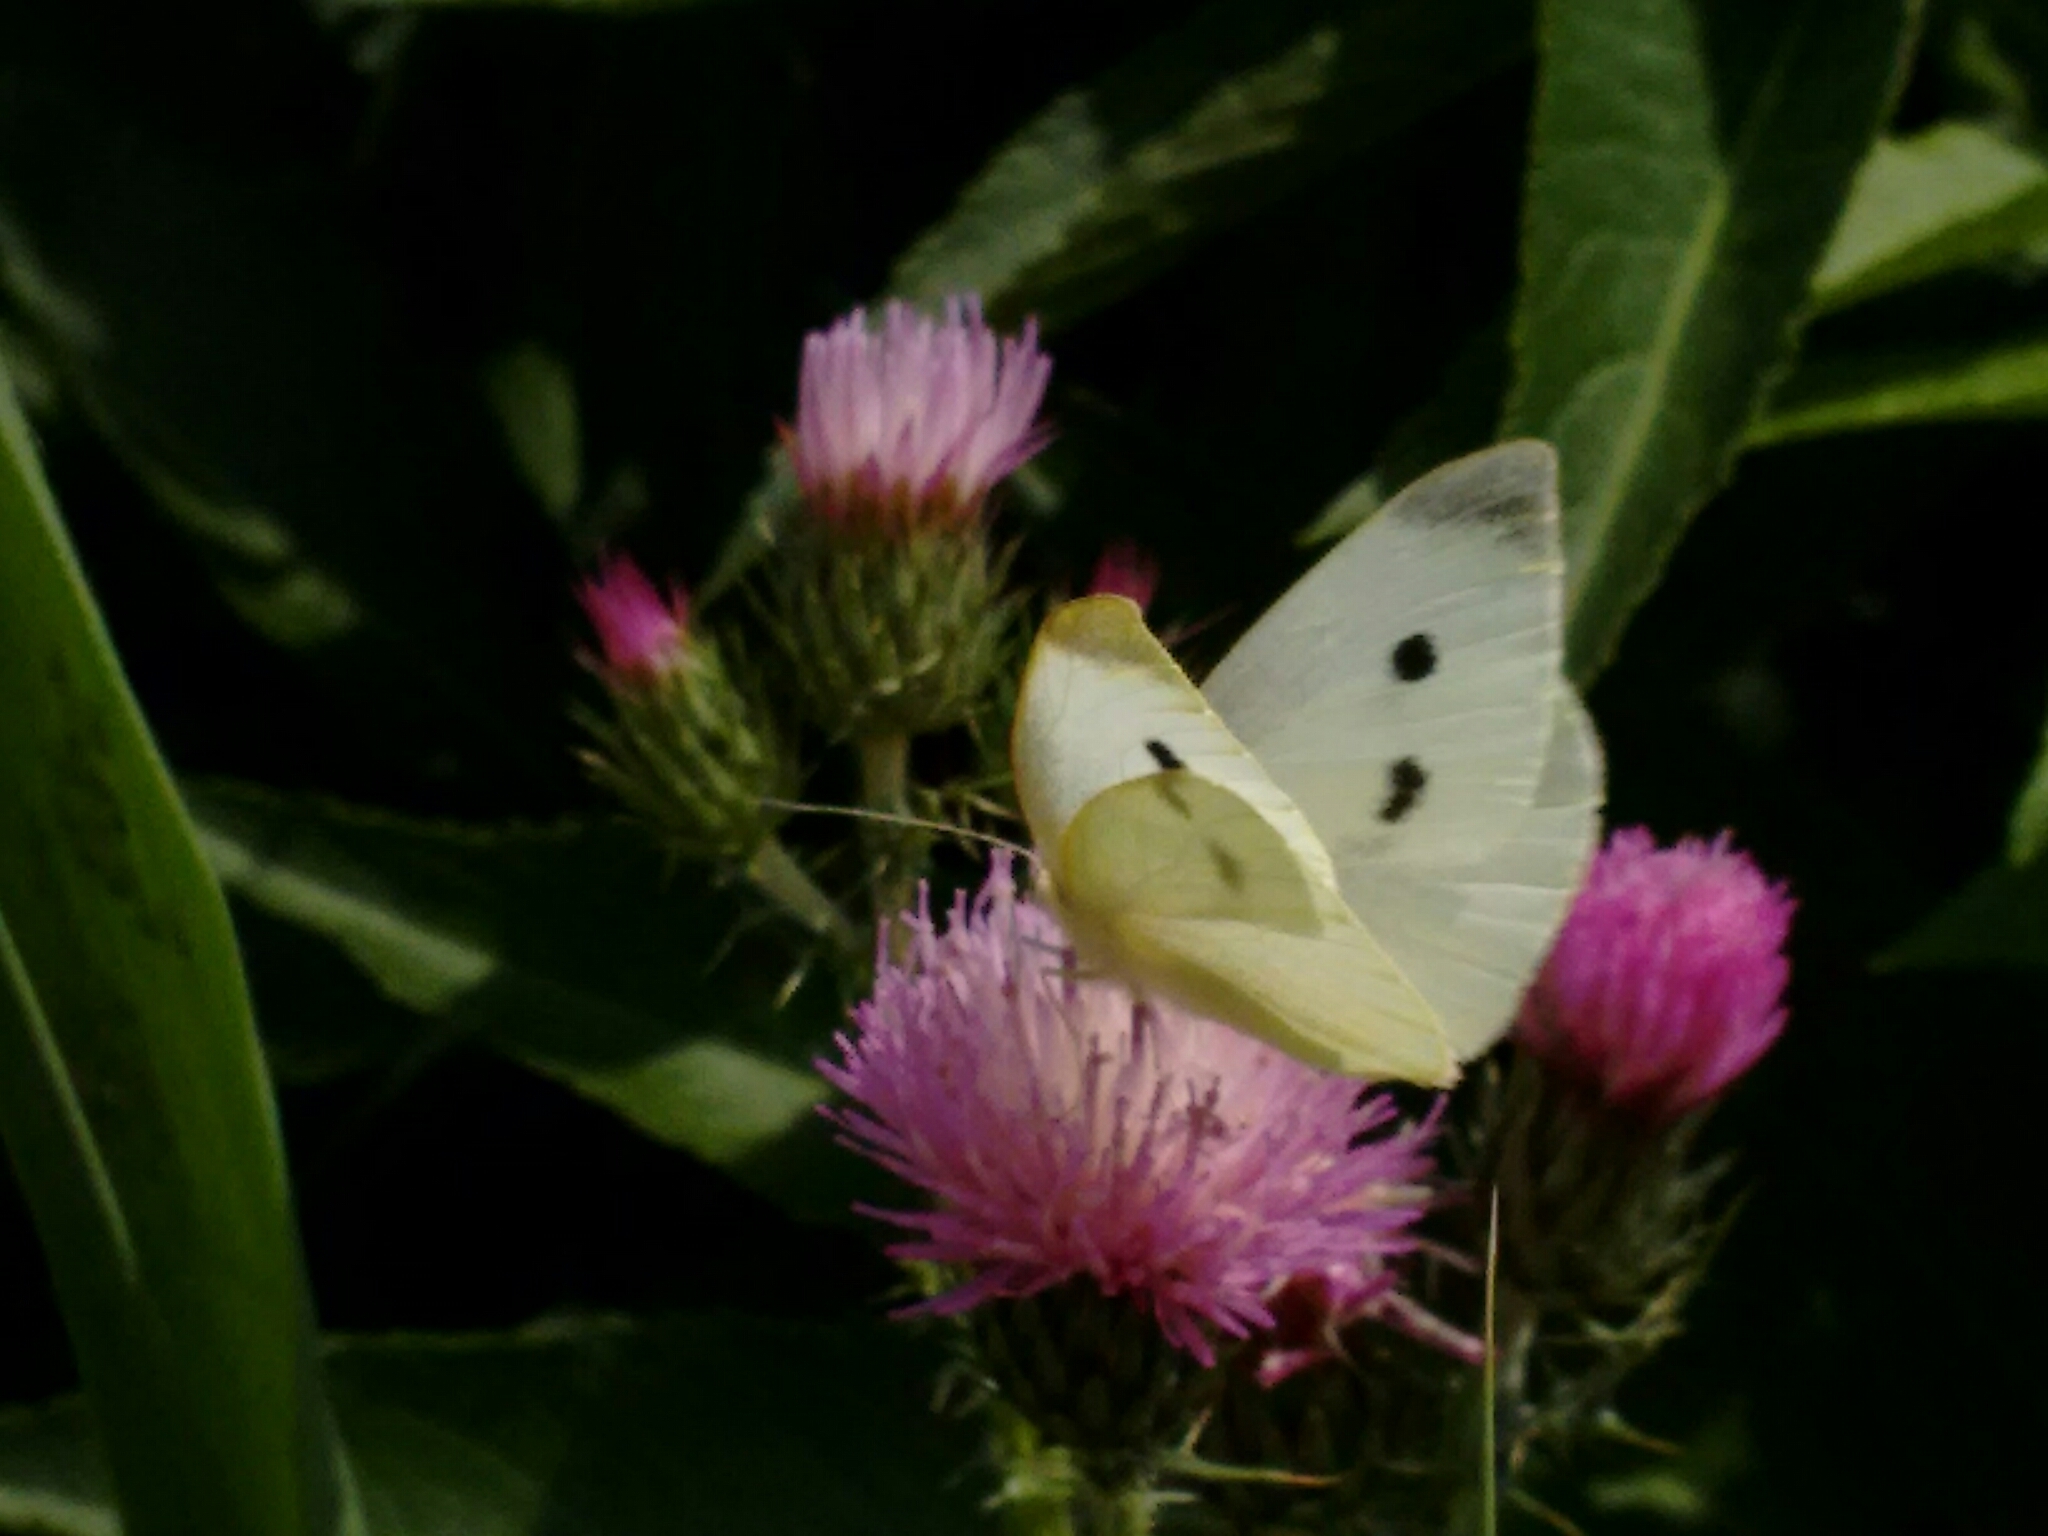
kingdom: Animalia
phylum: Arthropoda
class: Insecta
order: Lepidoptera
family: Pieridae
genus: Pieris
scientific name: Pieris rapae
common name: Small white
